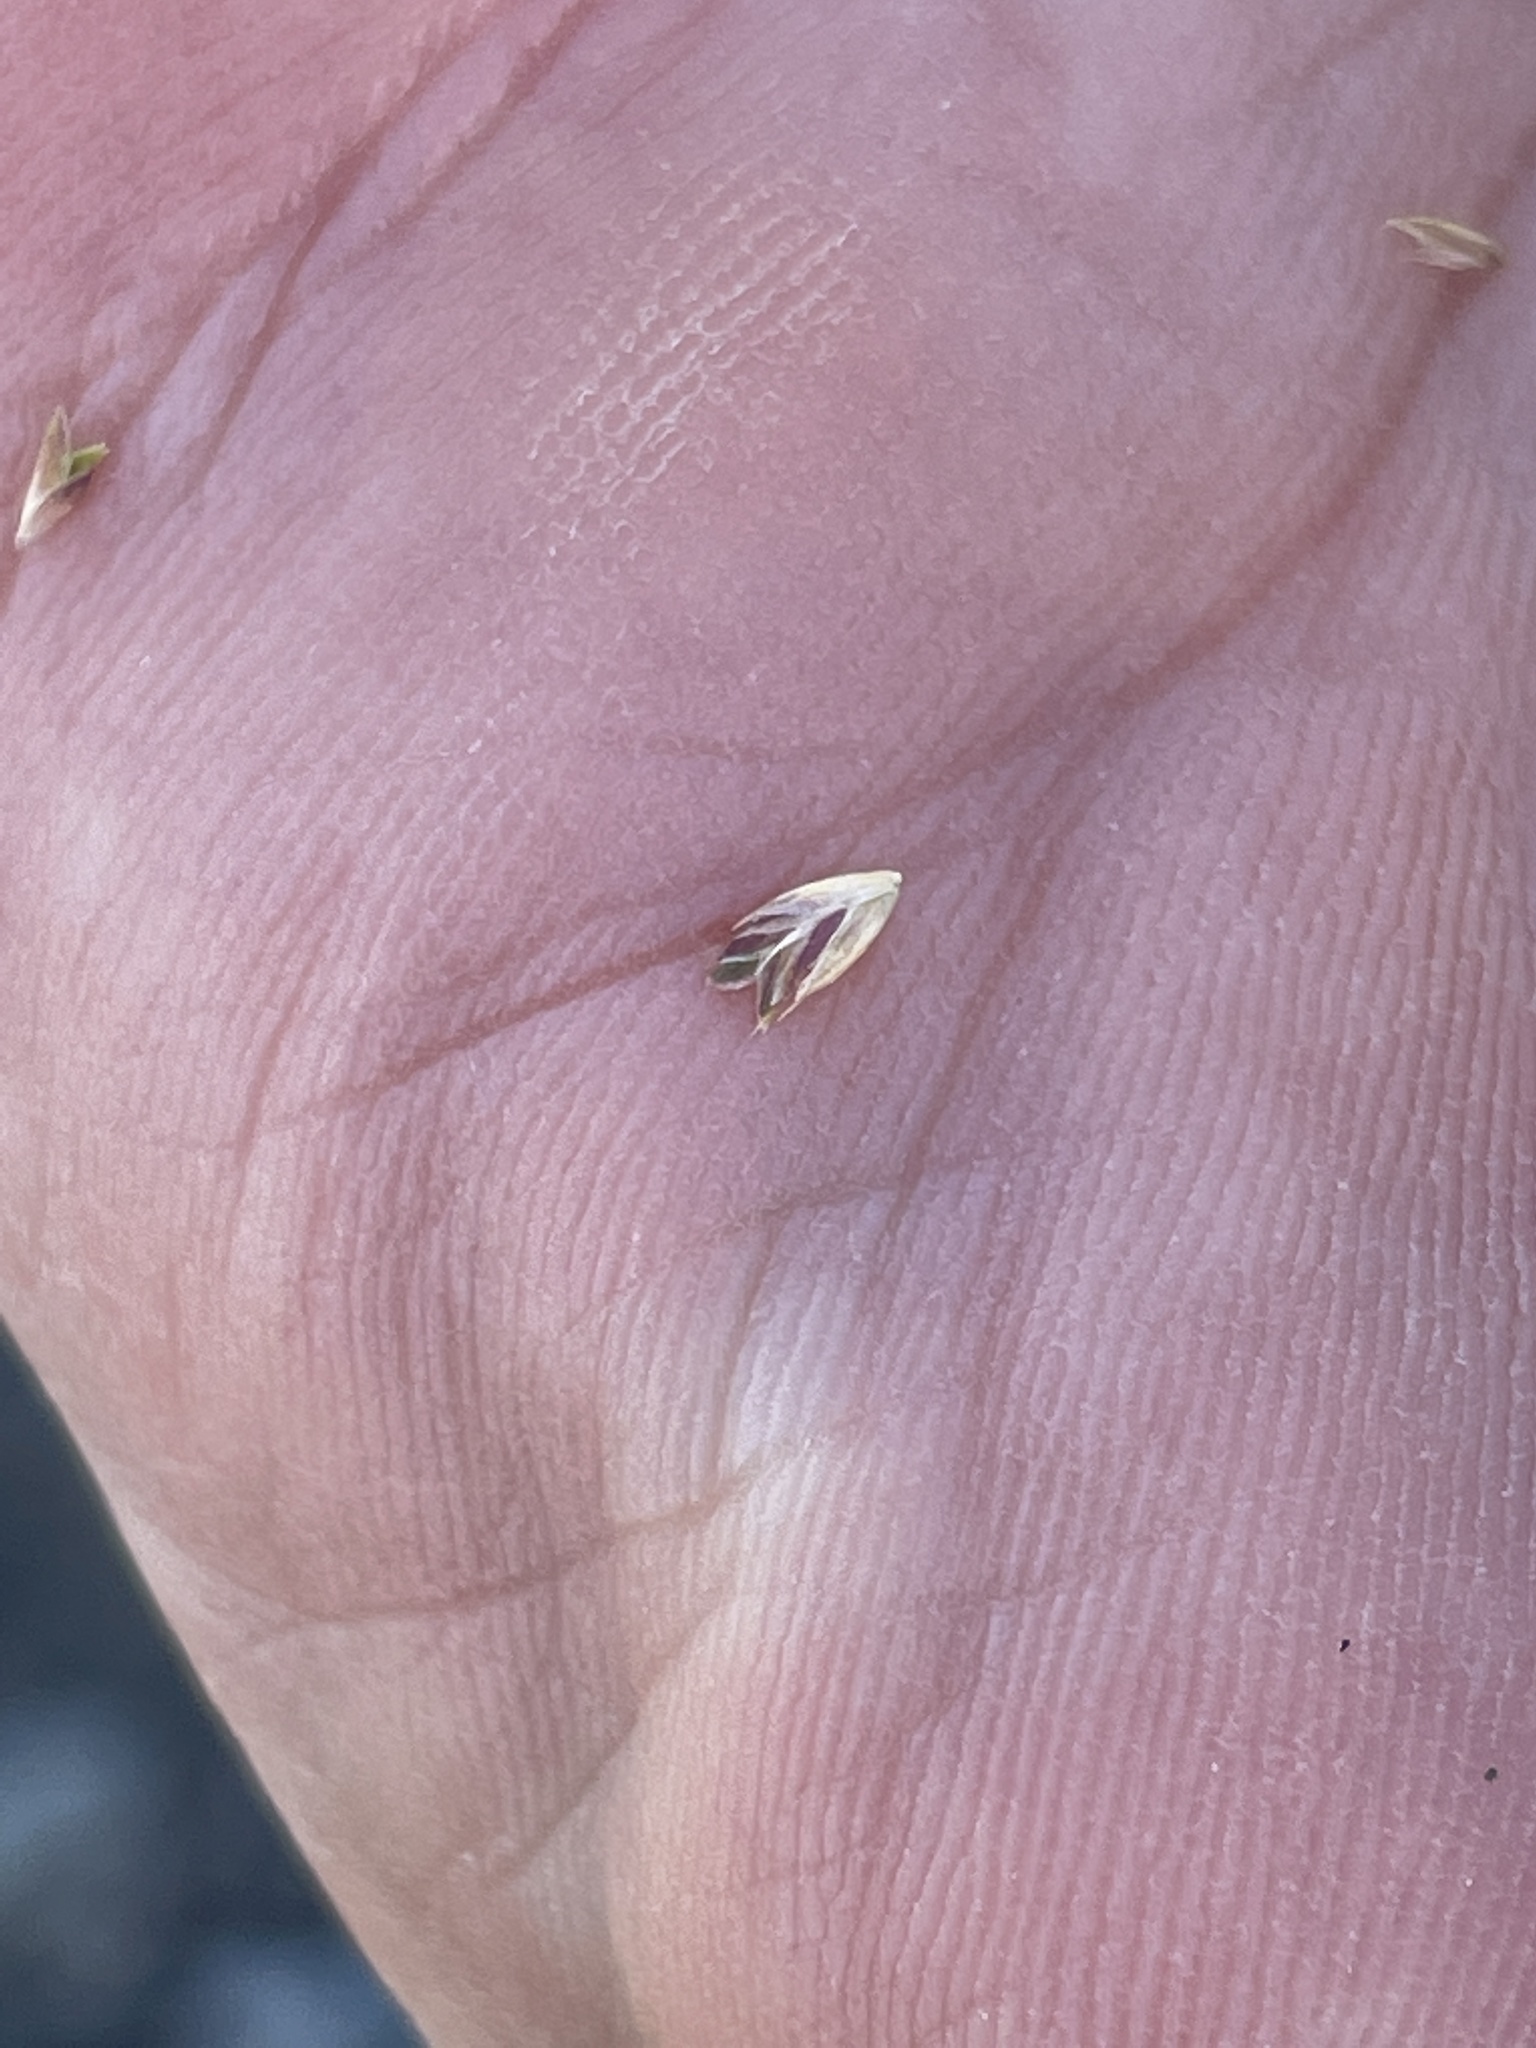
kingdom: Plantae
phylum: Tracheophyta
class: Liliopsida
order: Poales
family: Poaceae
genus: Rostraria
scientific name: Rostraria cristata
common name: Mediterranean hair-grass
